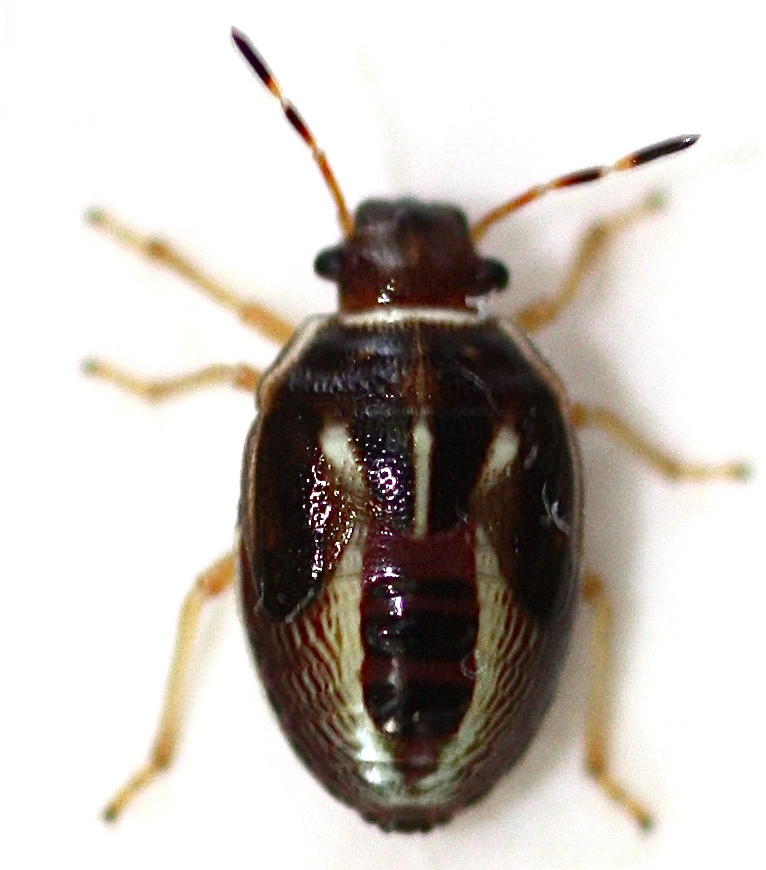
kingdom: Animalia
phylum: Arthropoda
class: Insecta
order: Hemiptera
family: Pentatomidae
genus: Mormidea
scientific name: Mormidea lugens
